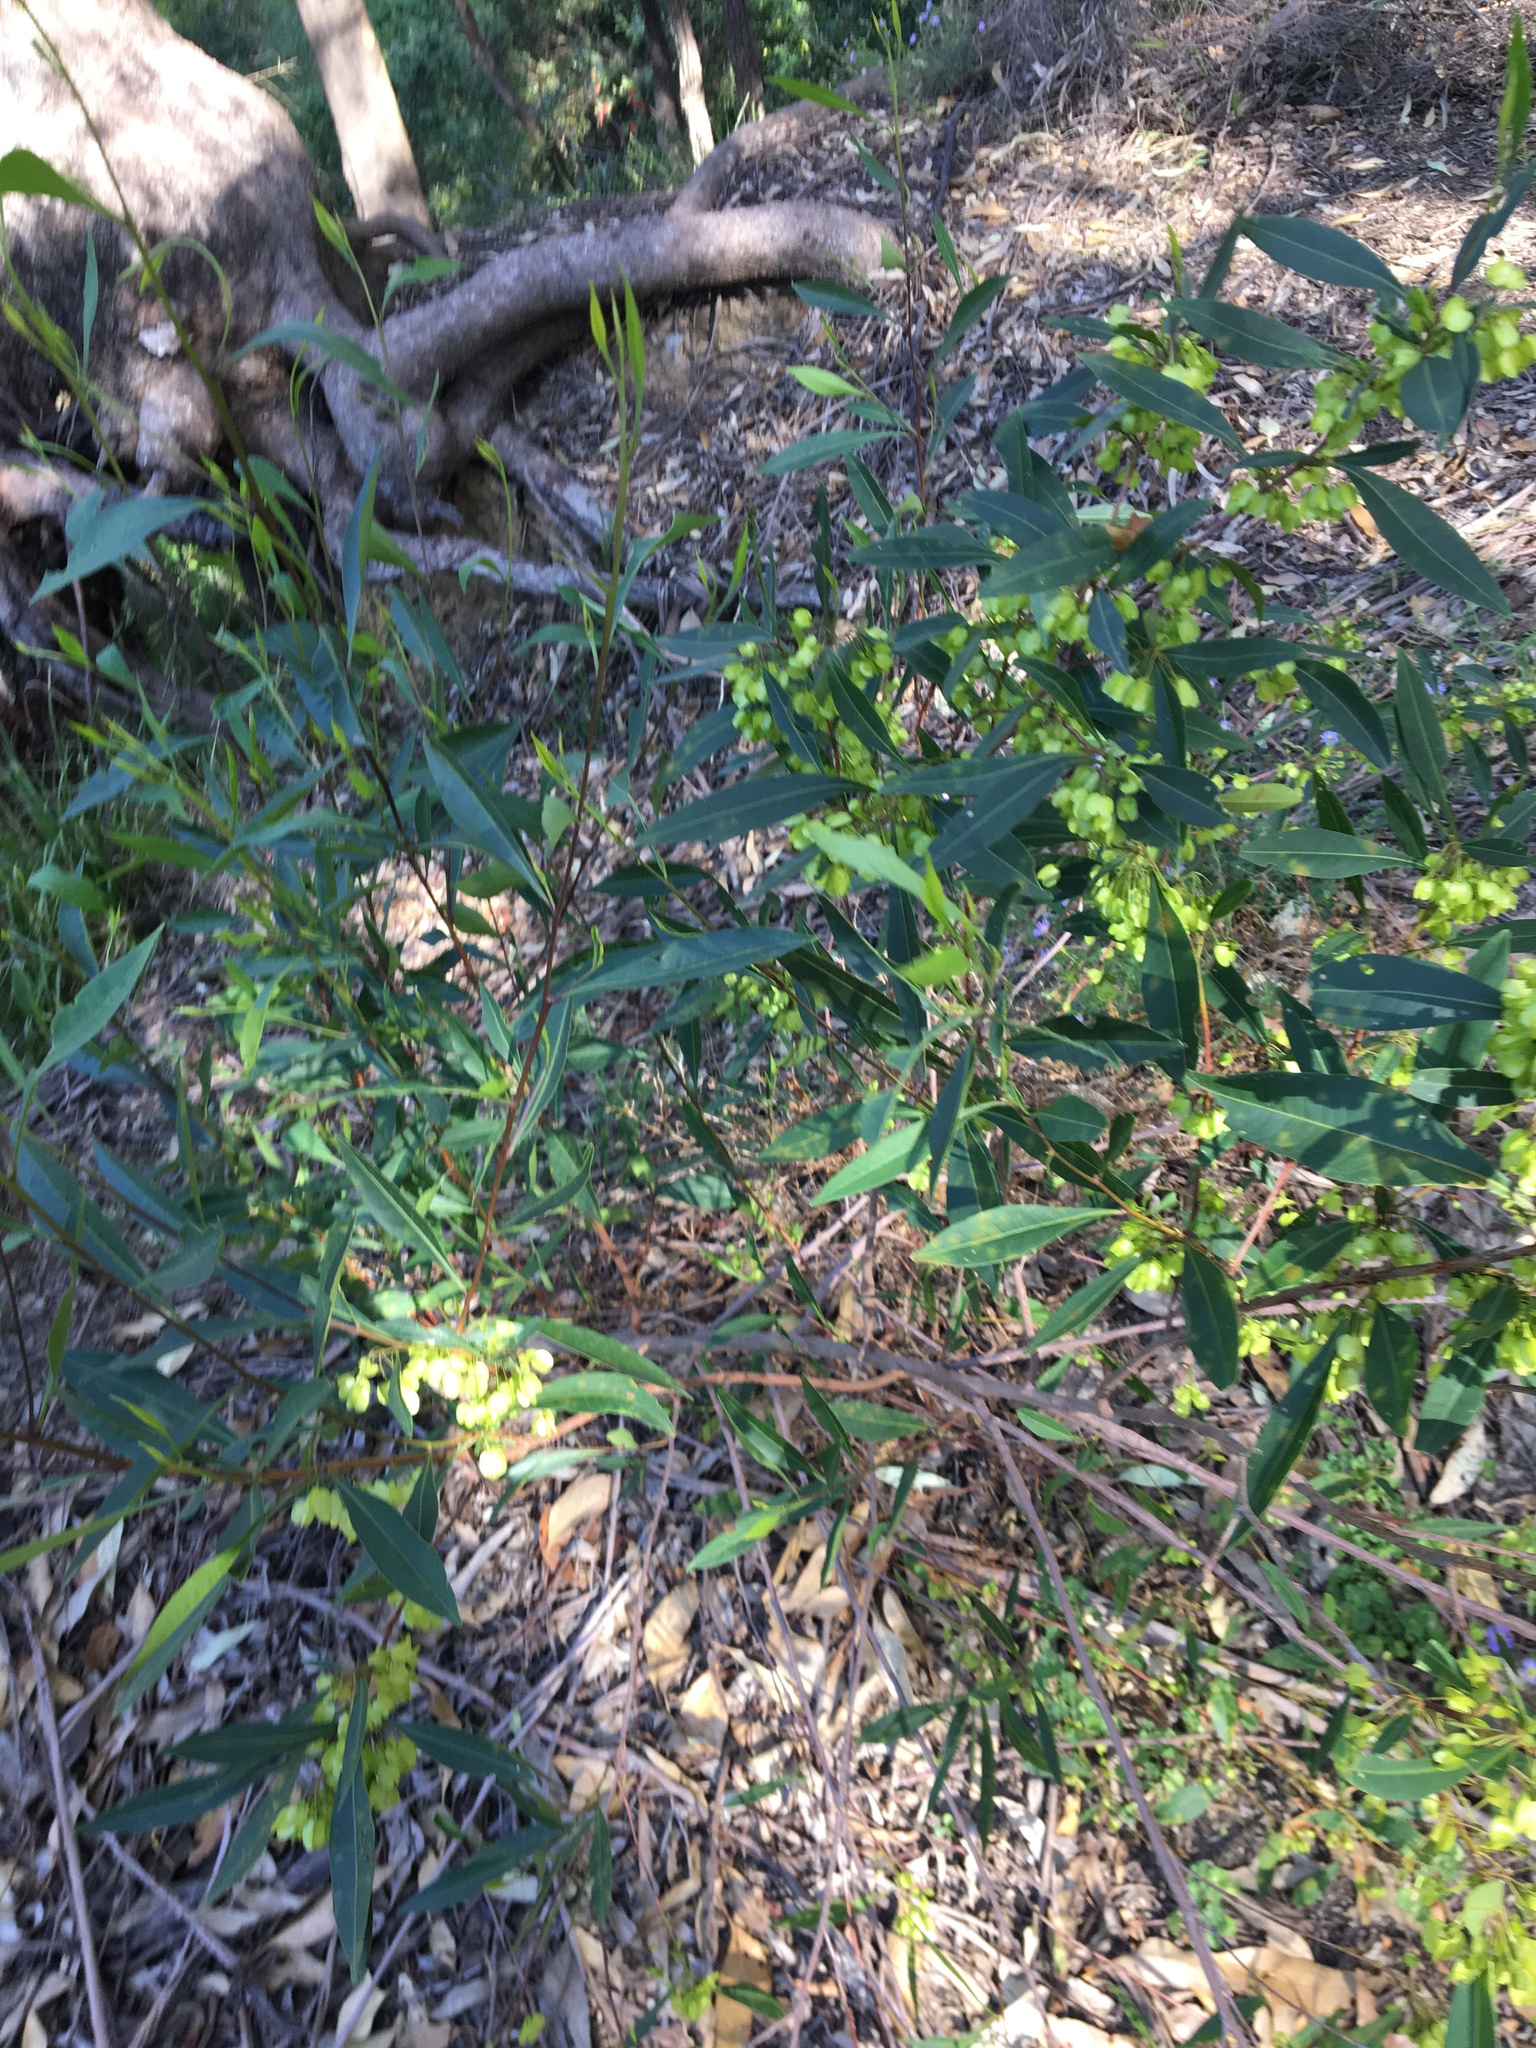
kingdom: Plantae
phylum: Tracheophyta
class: Magnoliopsida
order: Sapindales
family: Sapindaceae
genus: Dodonaea
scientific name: Dodonaea triquetra
